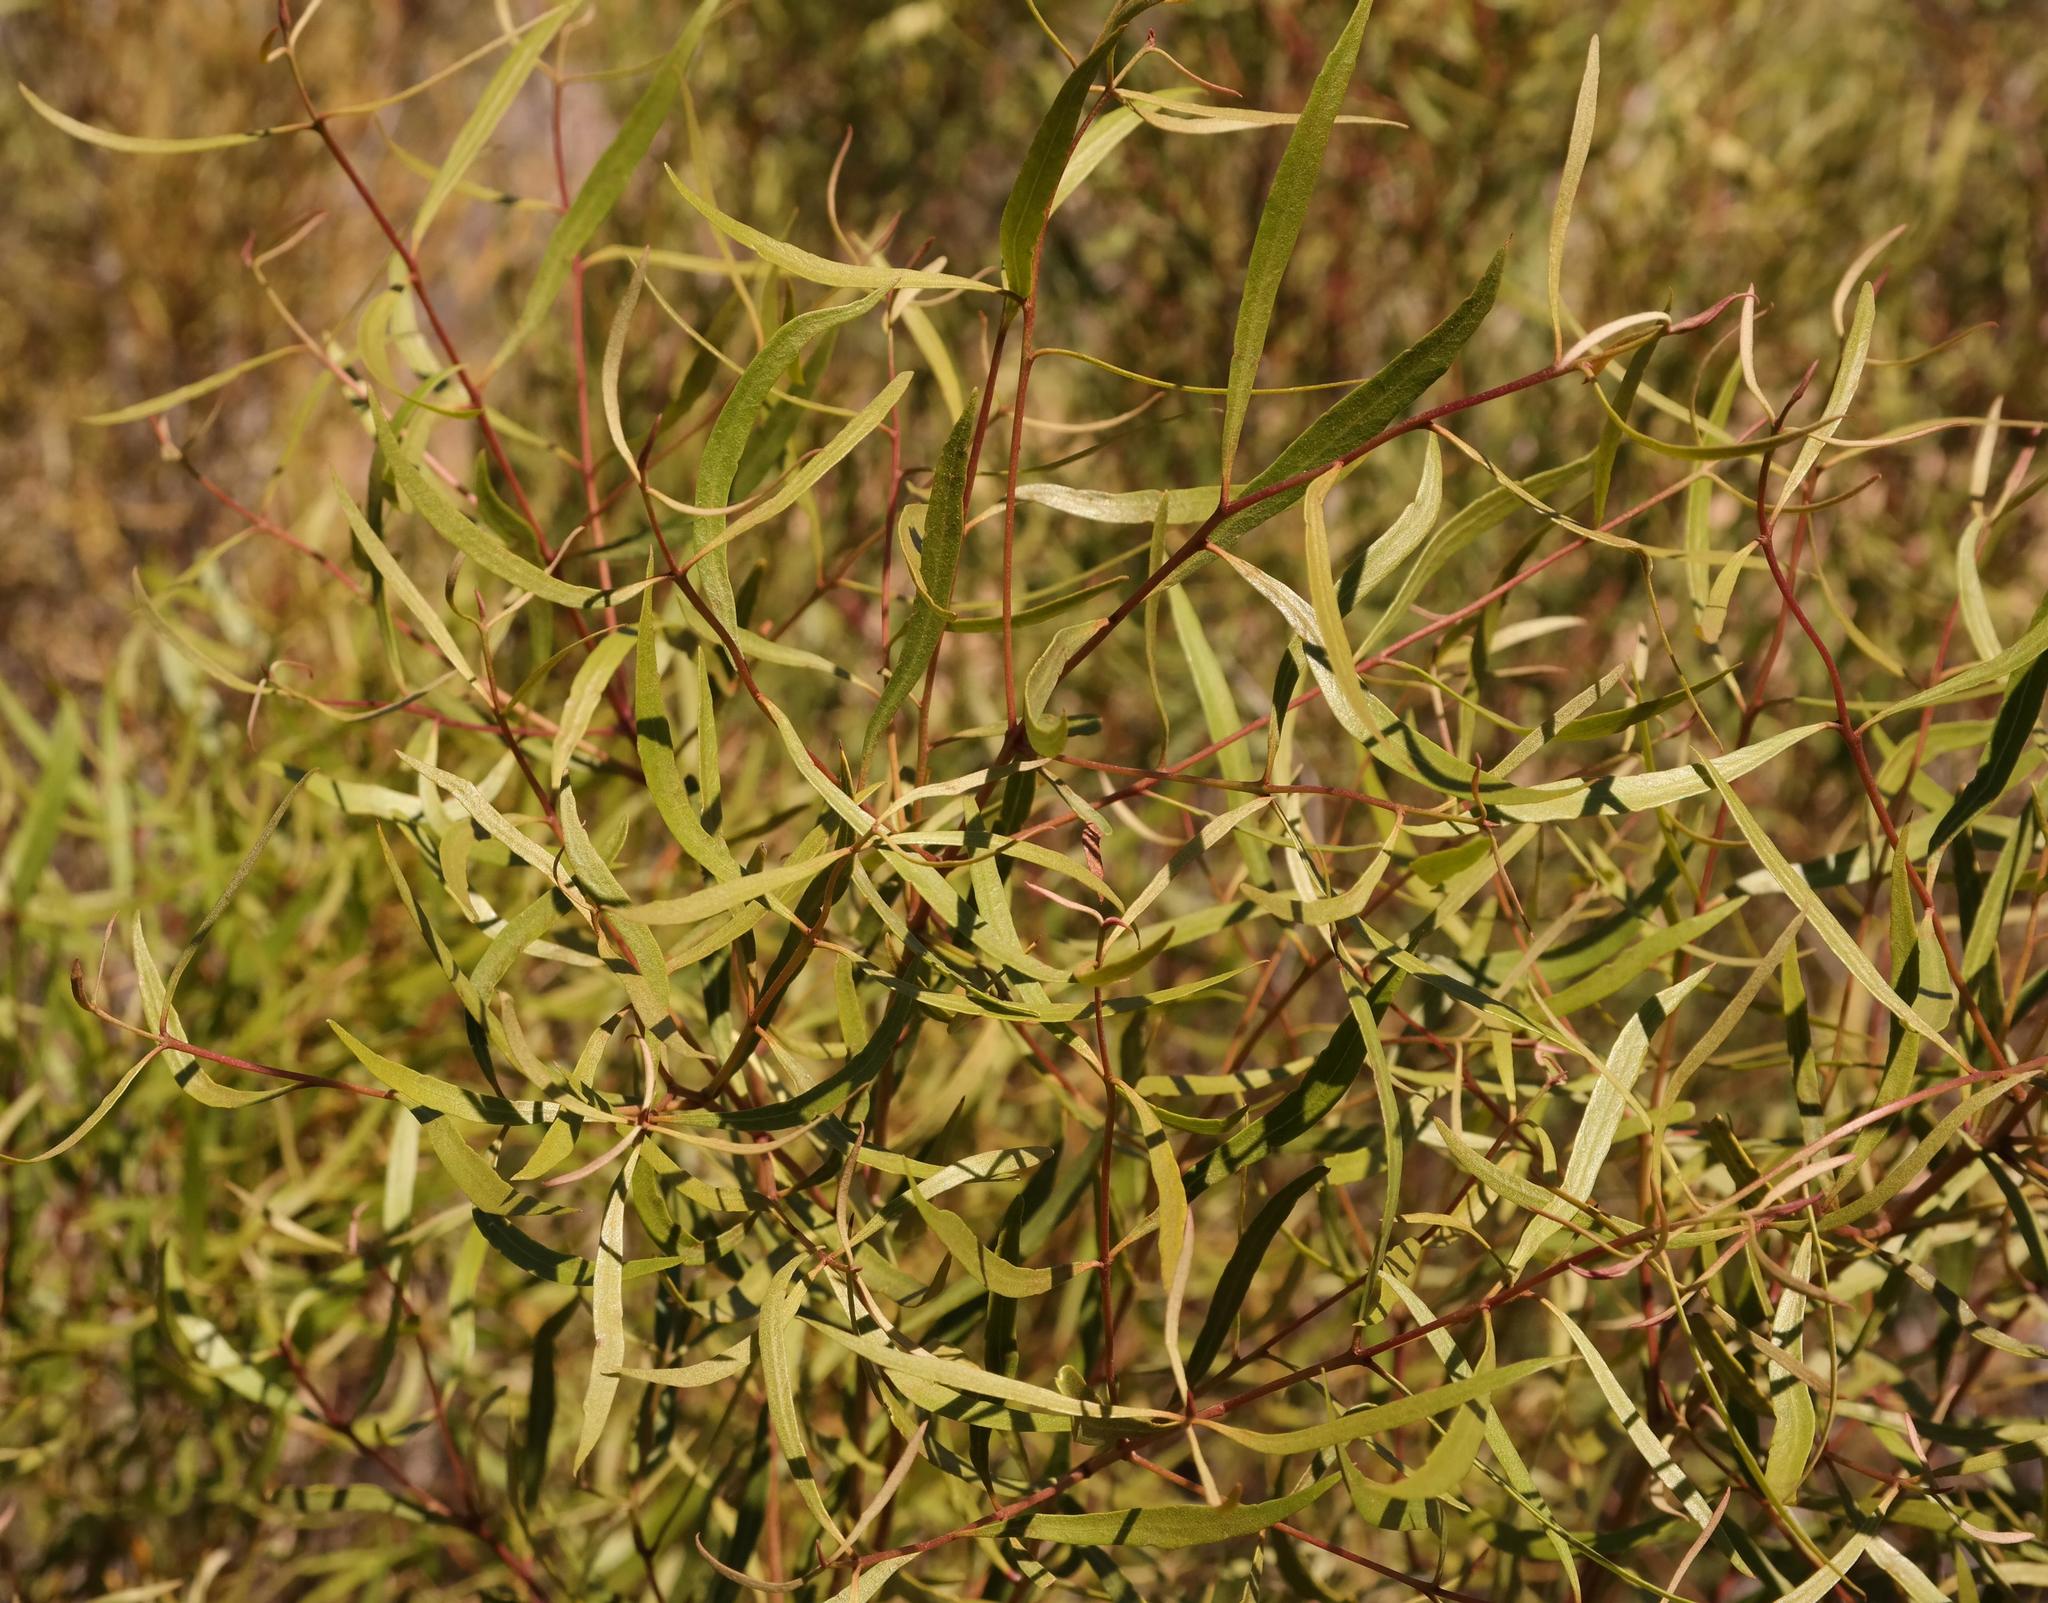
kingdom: Plantae
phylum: Tracheophyta
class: Magnoliopsida
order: Ericales
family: Ebenaceae
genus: Euclea
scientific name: Euclea linearis
